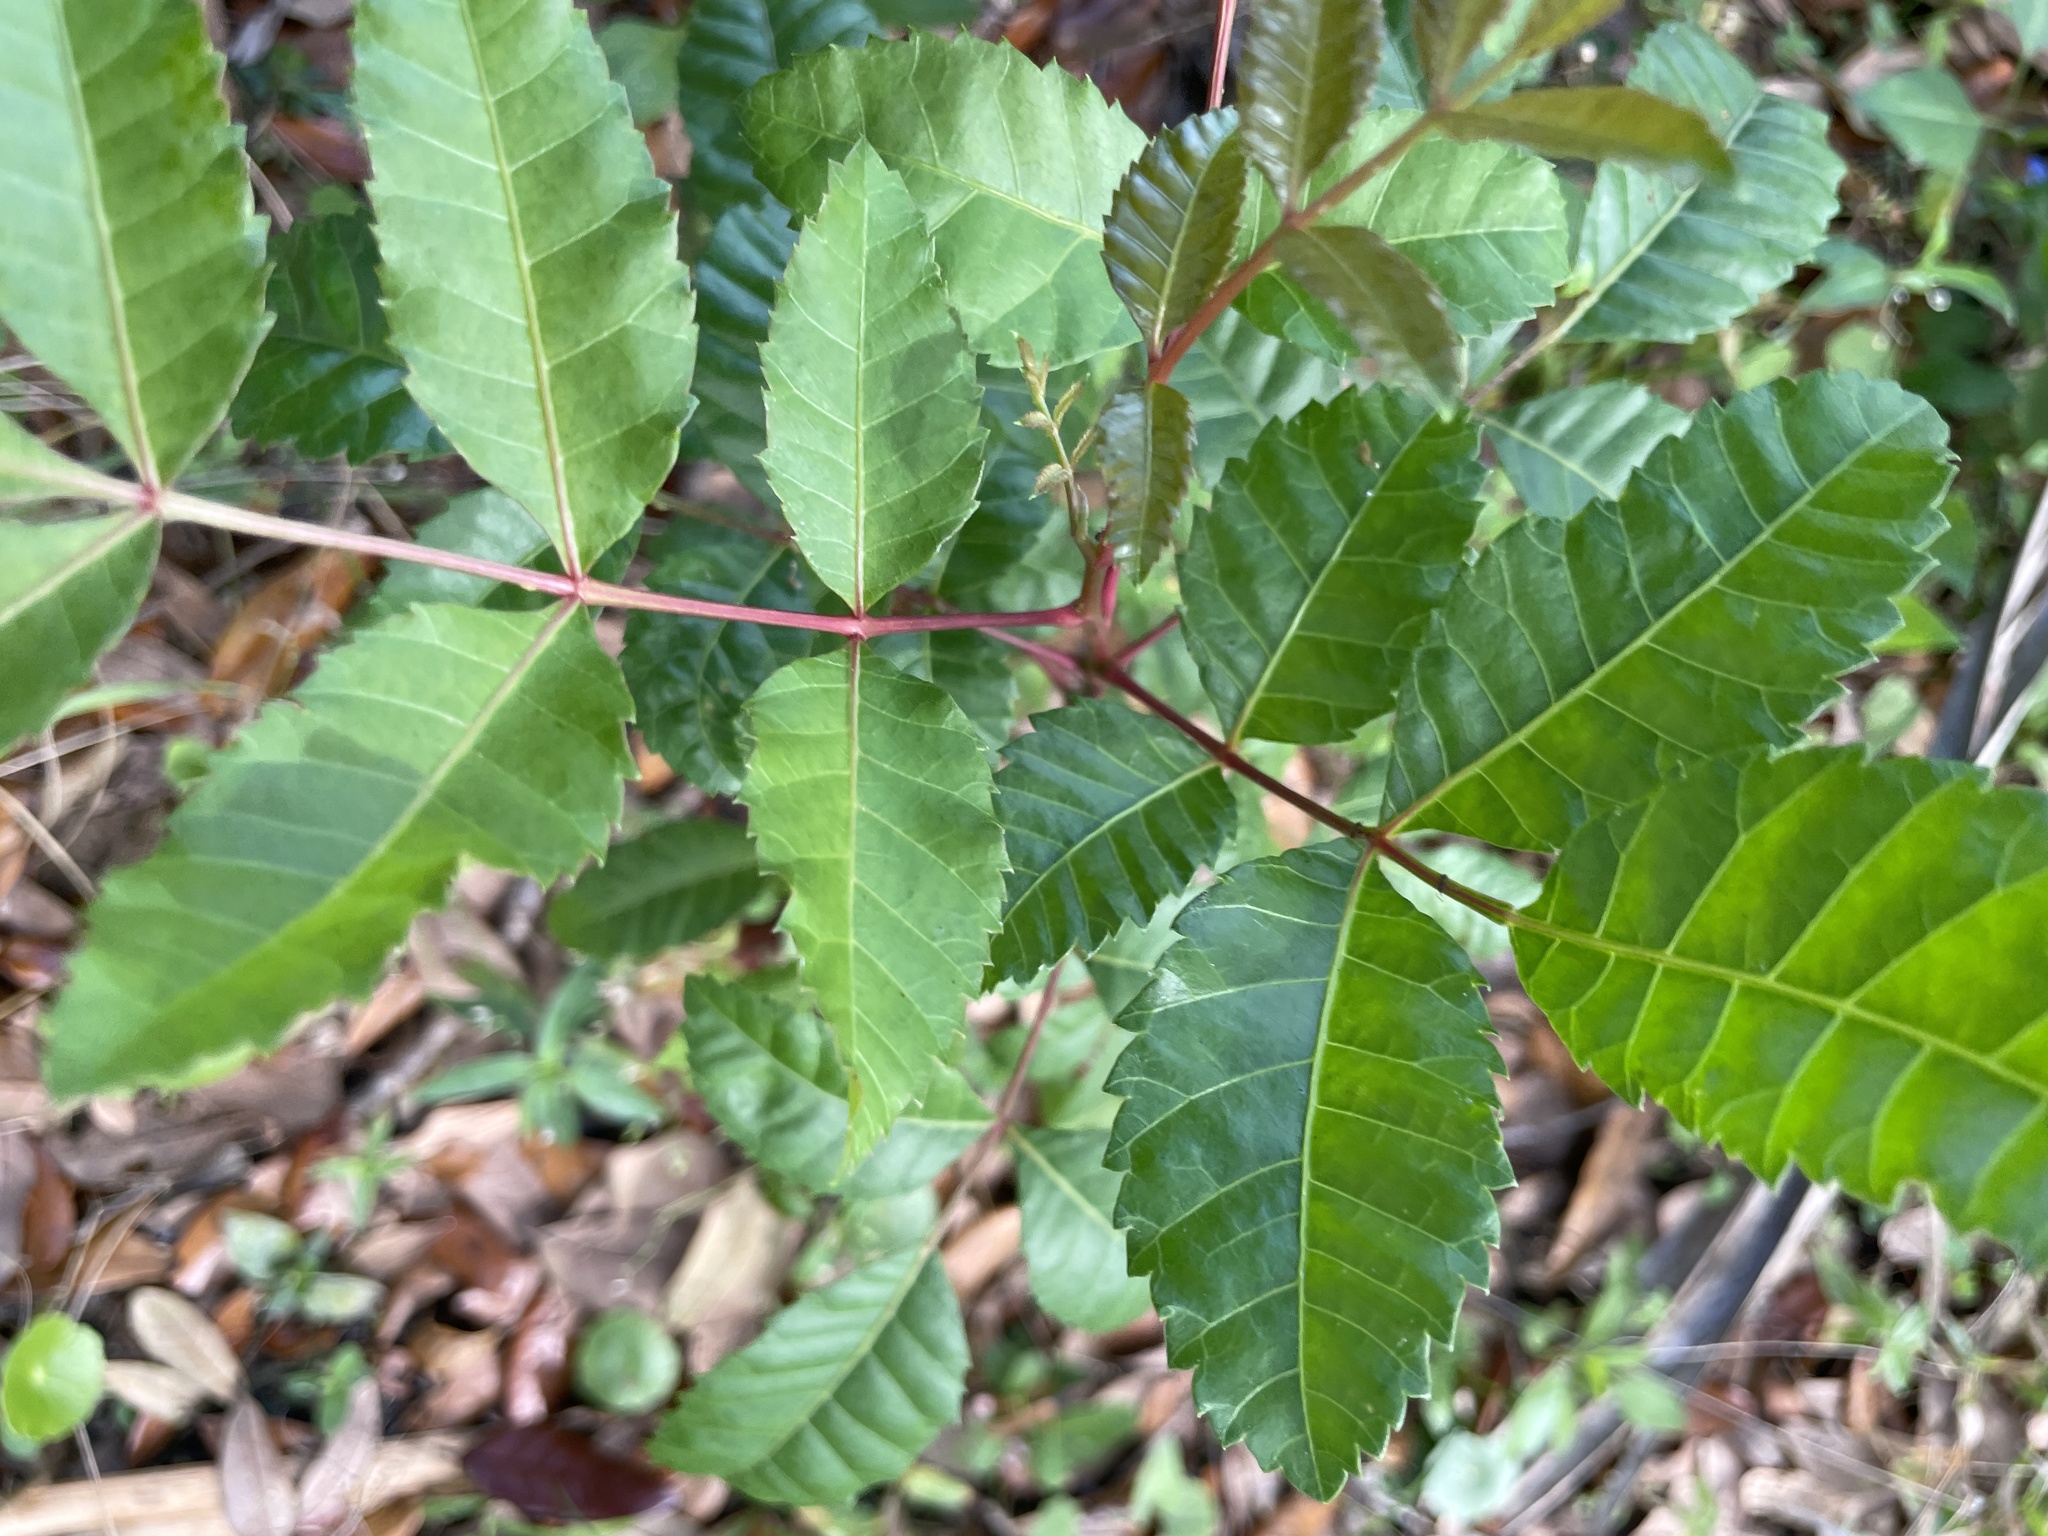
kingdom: Plantae
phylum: Tracheophyta
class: Magnoliopsida
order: Sapindales
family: Anacardiaceae
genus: Schinus
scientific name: Schinus terebinthifolia
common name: Brazilian peppertree
